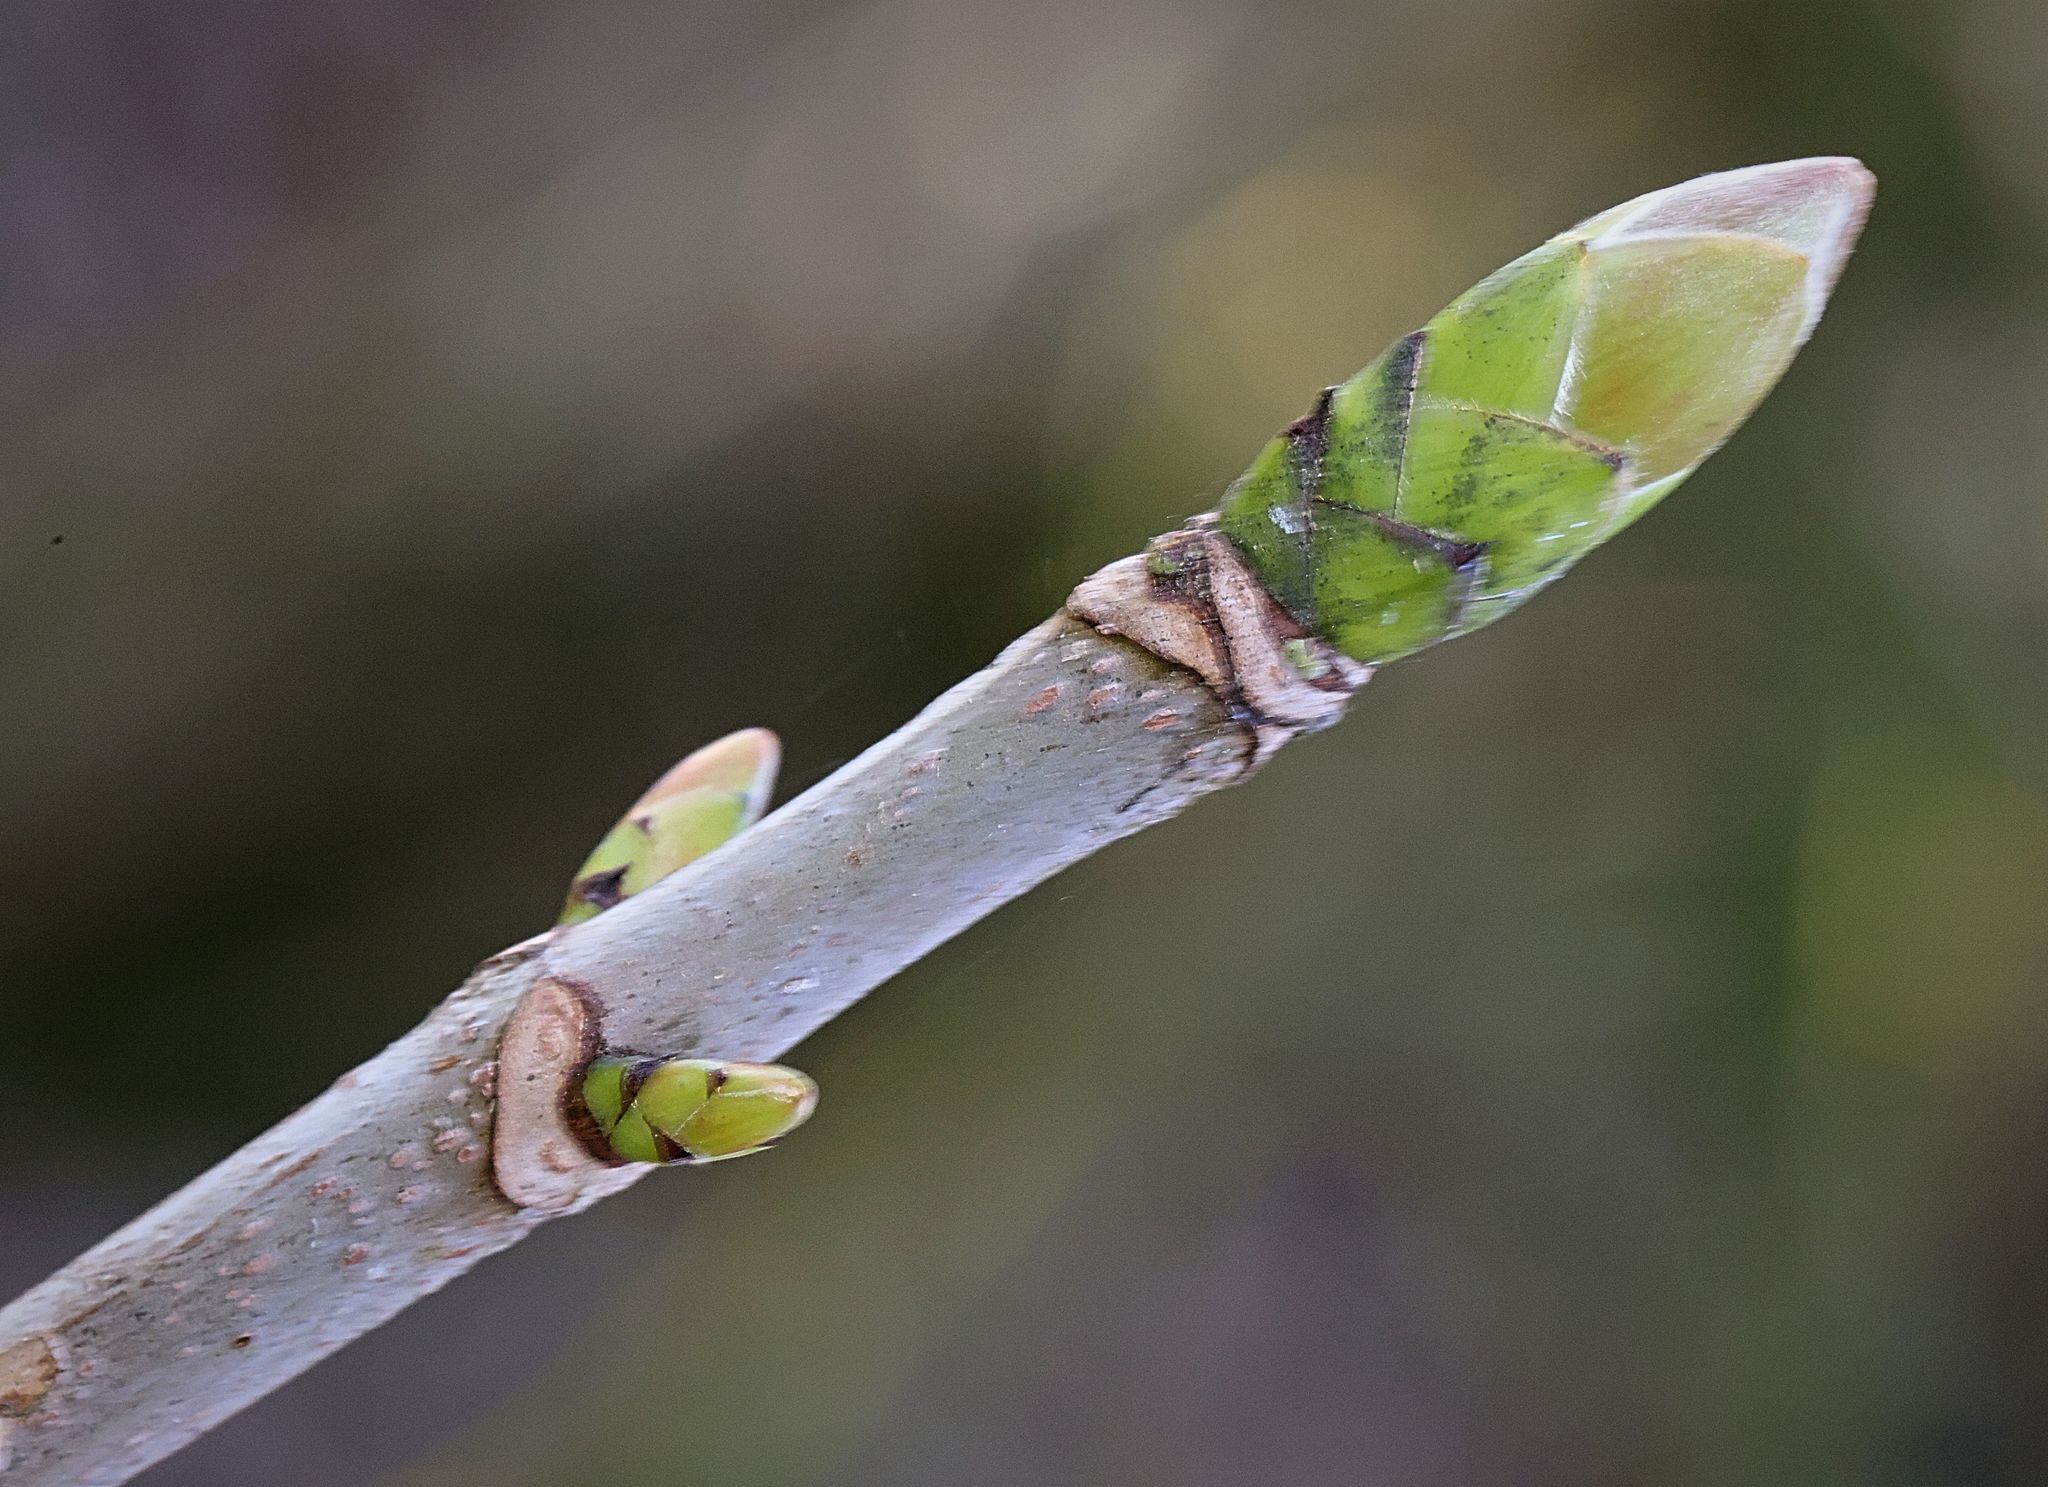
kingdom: Plantae
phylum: Tracheophyta
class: Magnoliopsida
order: Sapindales
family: Sapindaceae
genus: Acer
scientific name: Acer pseudoplatanus
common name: Sycamore
